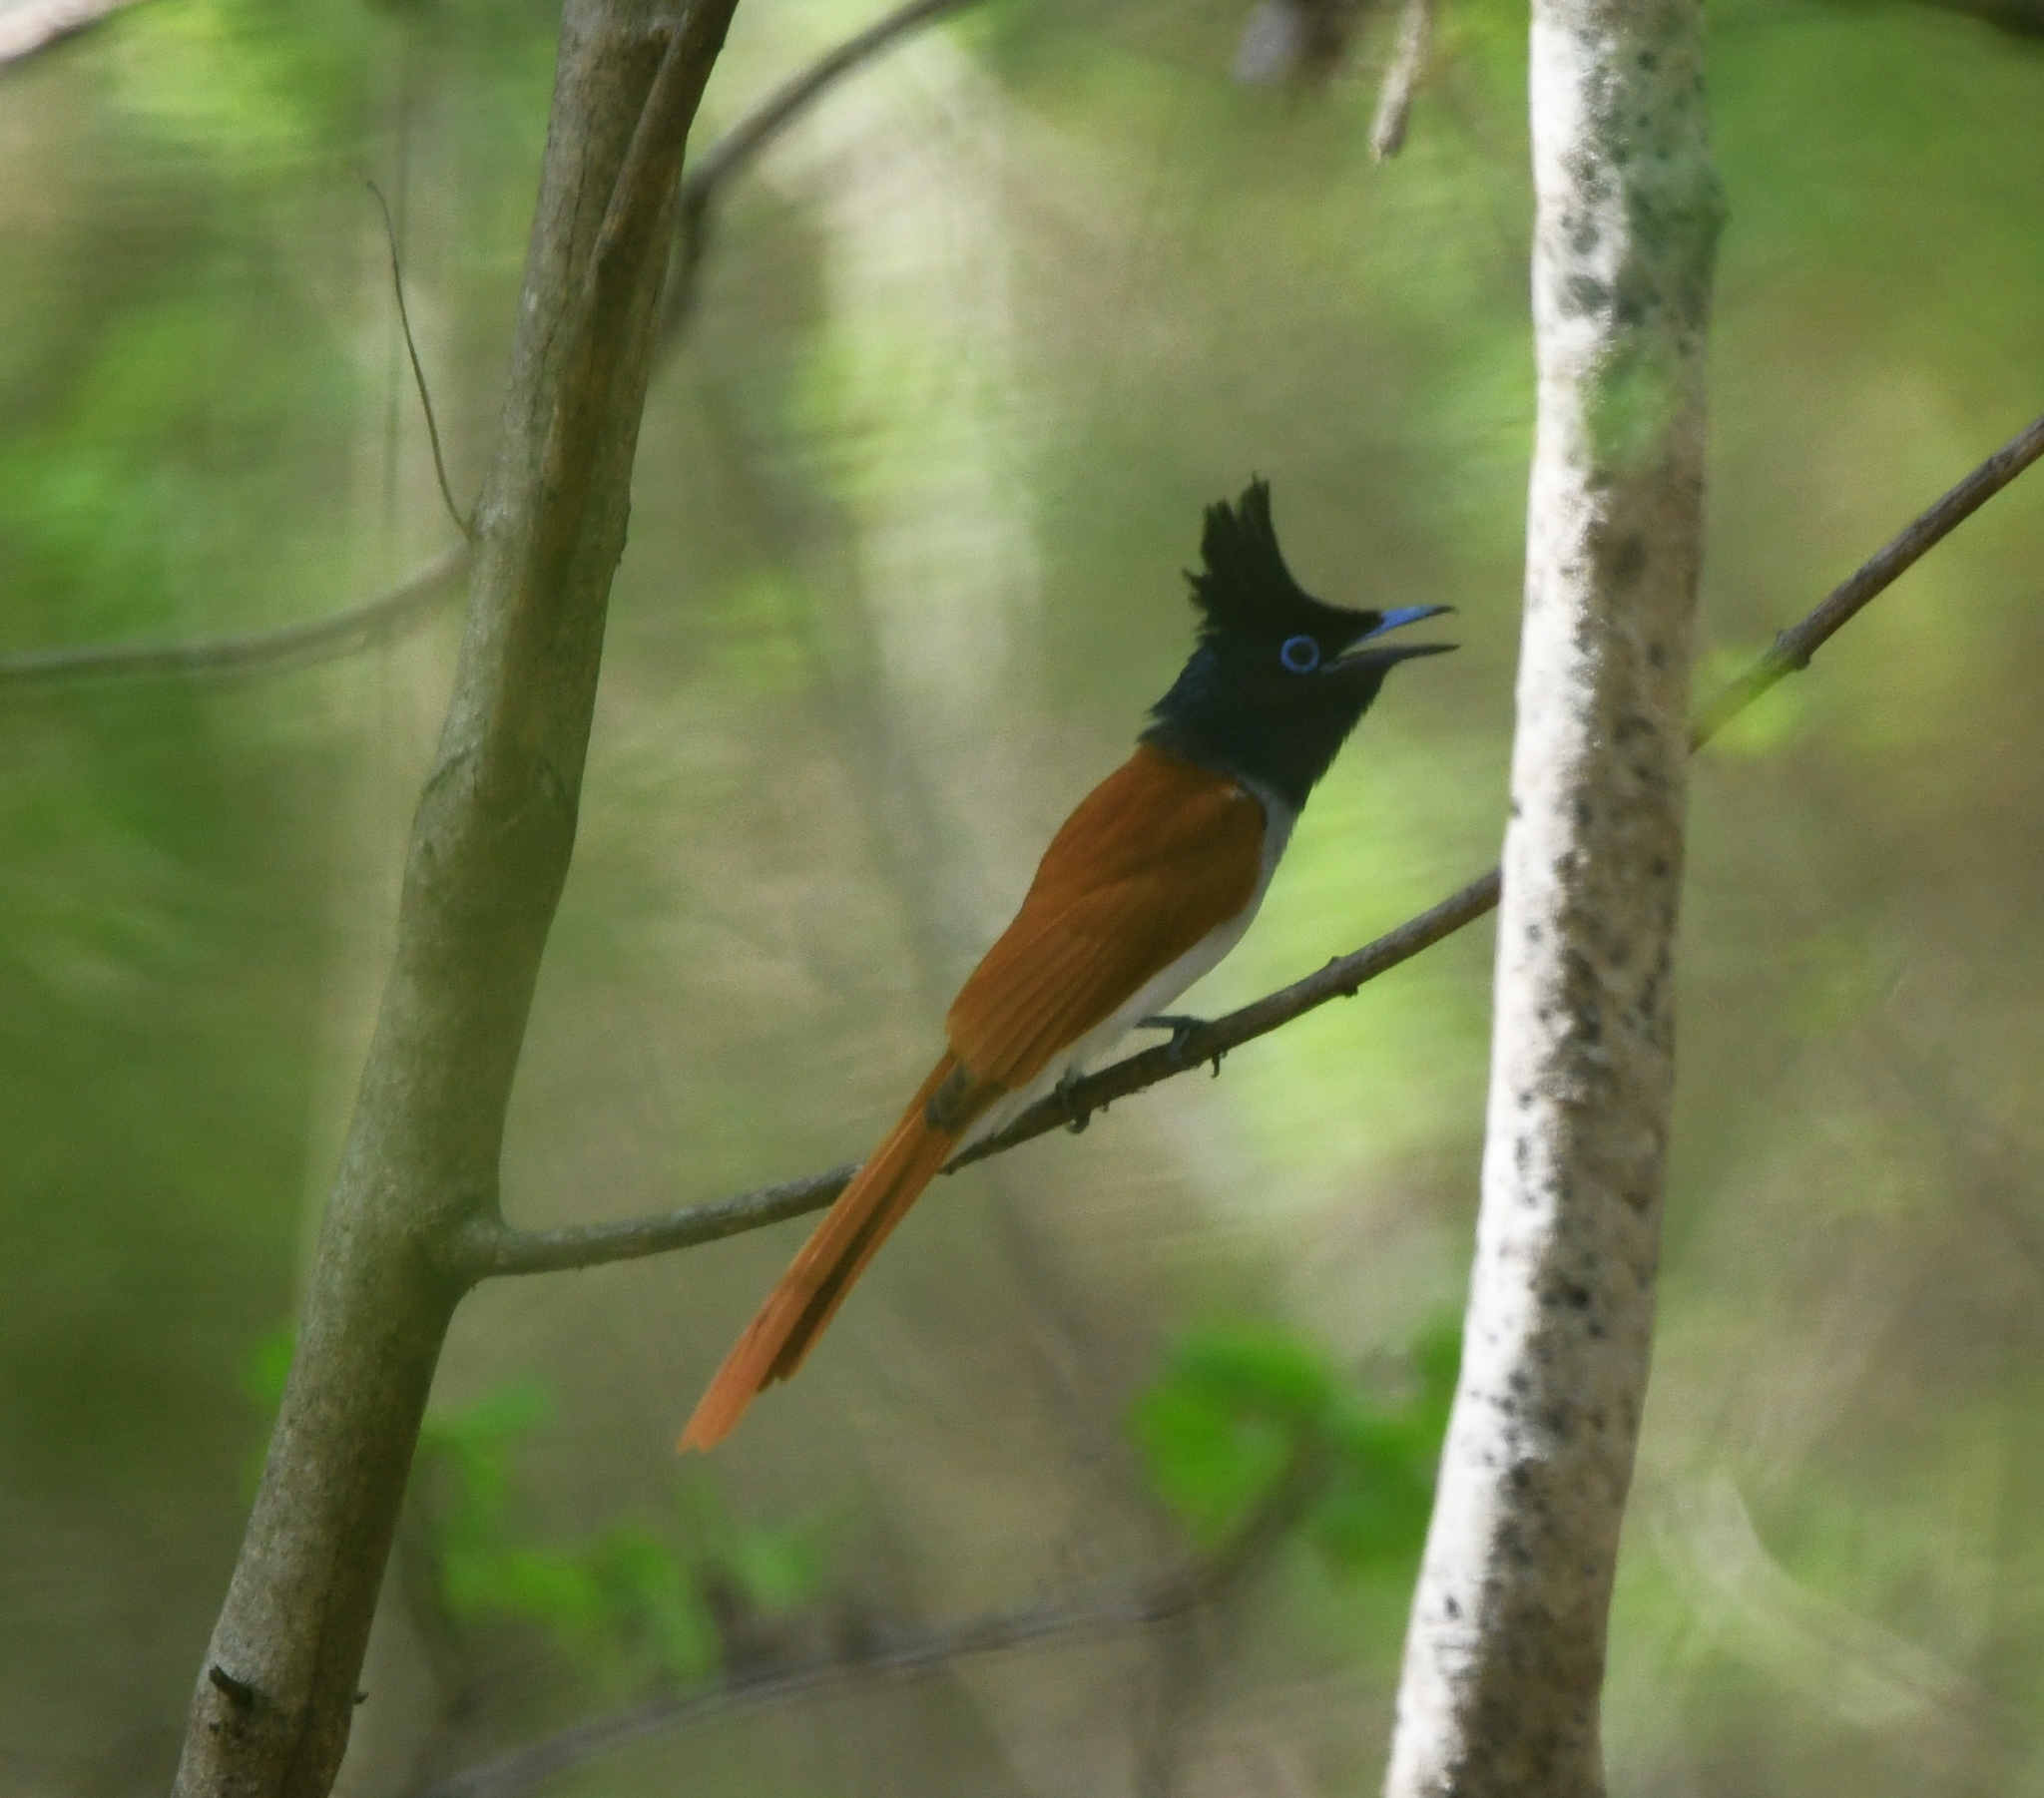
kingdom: Animalia
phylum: Chordata
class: Aves
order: Passeriformes
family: Monarchidae
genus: Terpsiphone
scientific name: Terpsiphone paradisi
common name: Indian paradise flycatcher
